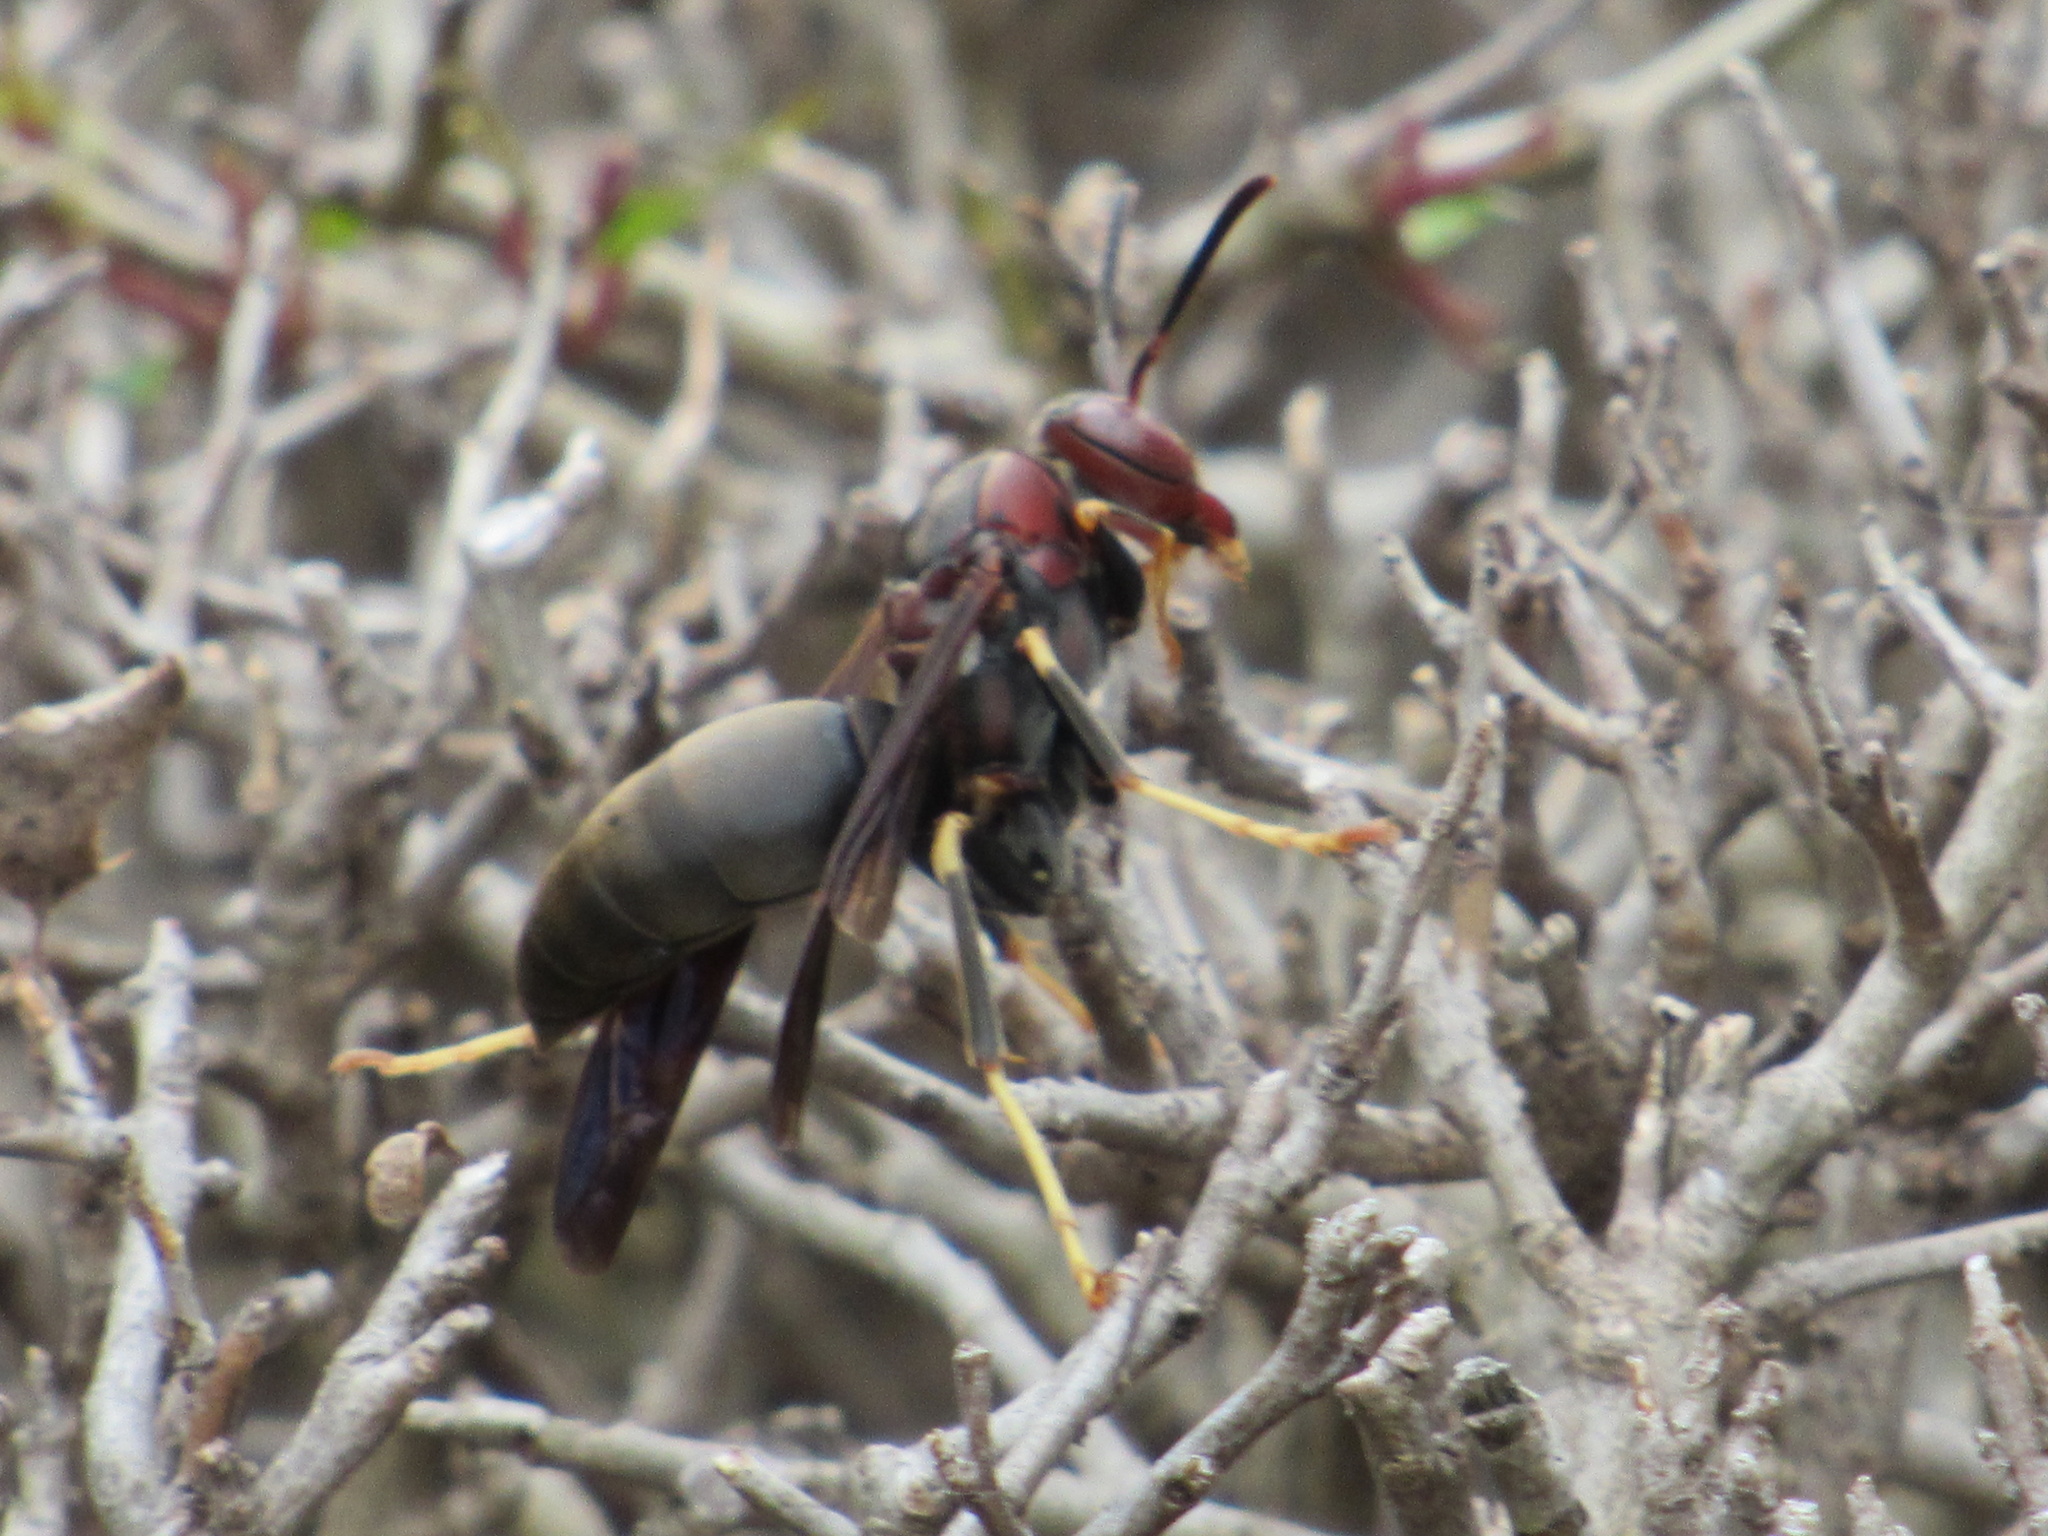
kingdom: Animalia
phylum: Arthropoda
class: Insecta
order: Hymenoptera
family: Eumenidae
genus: Polistes
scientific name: Polistes metricus
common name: Metric paper wasp
